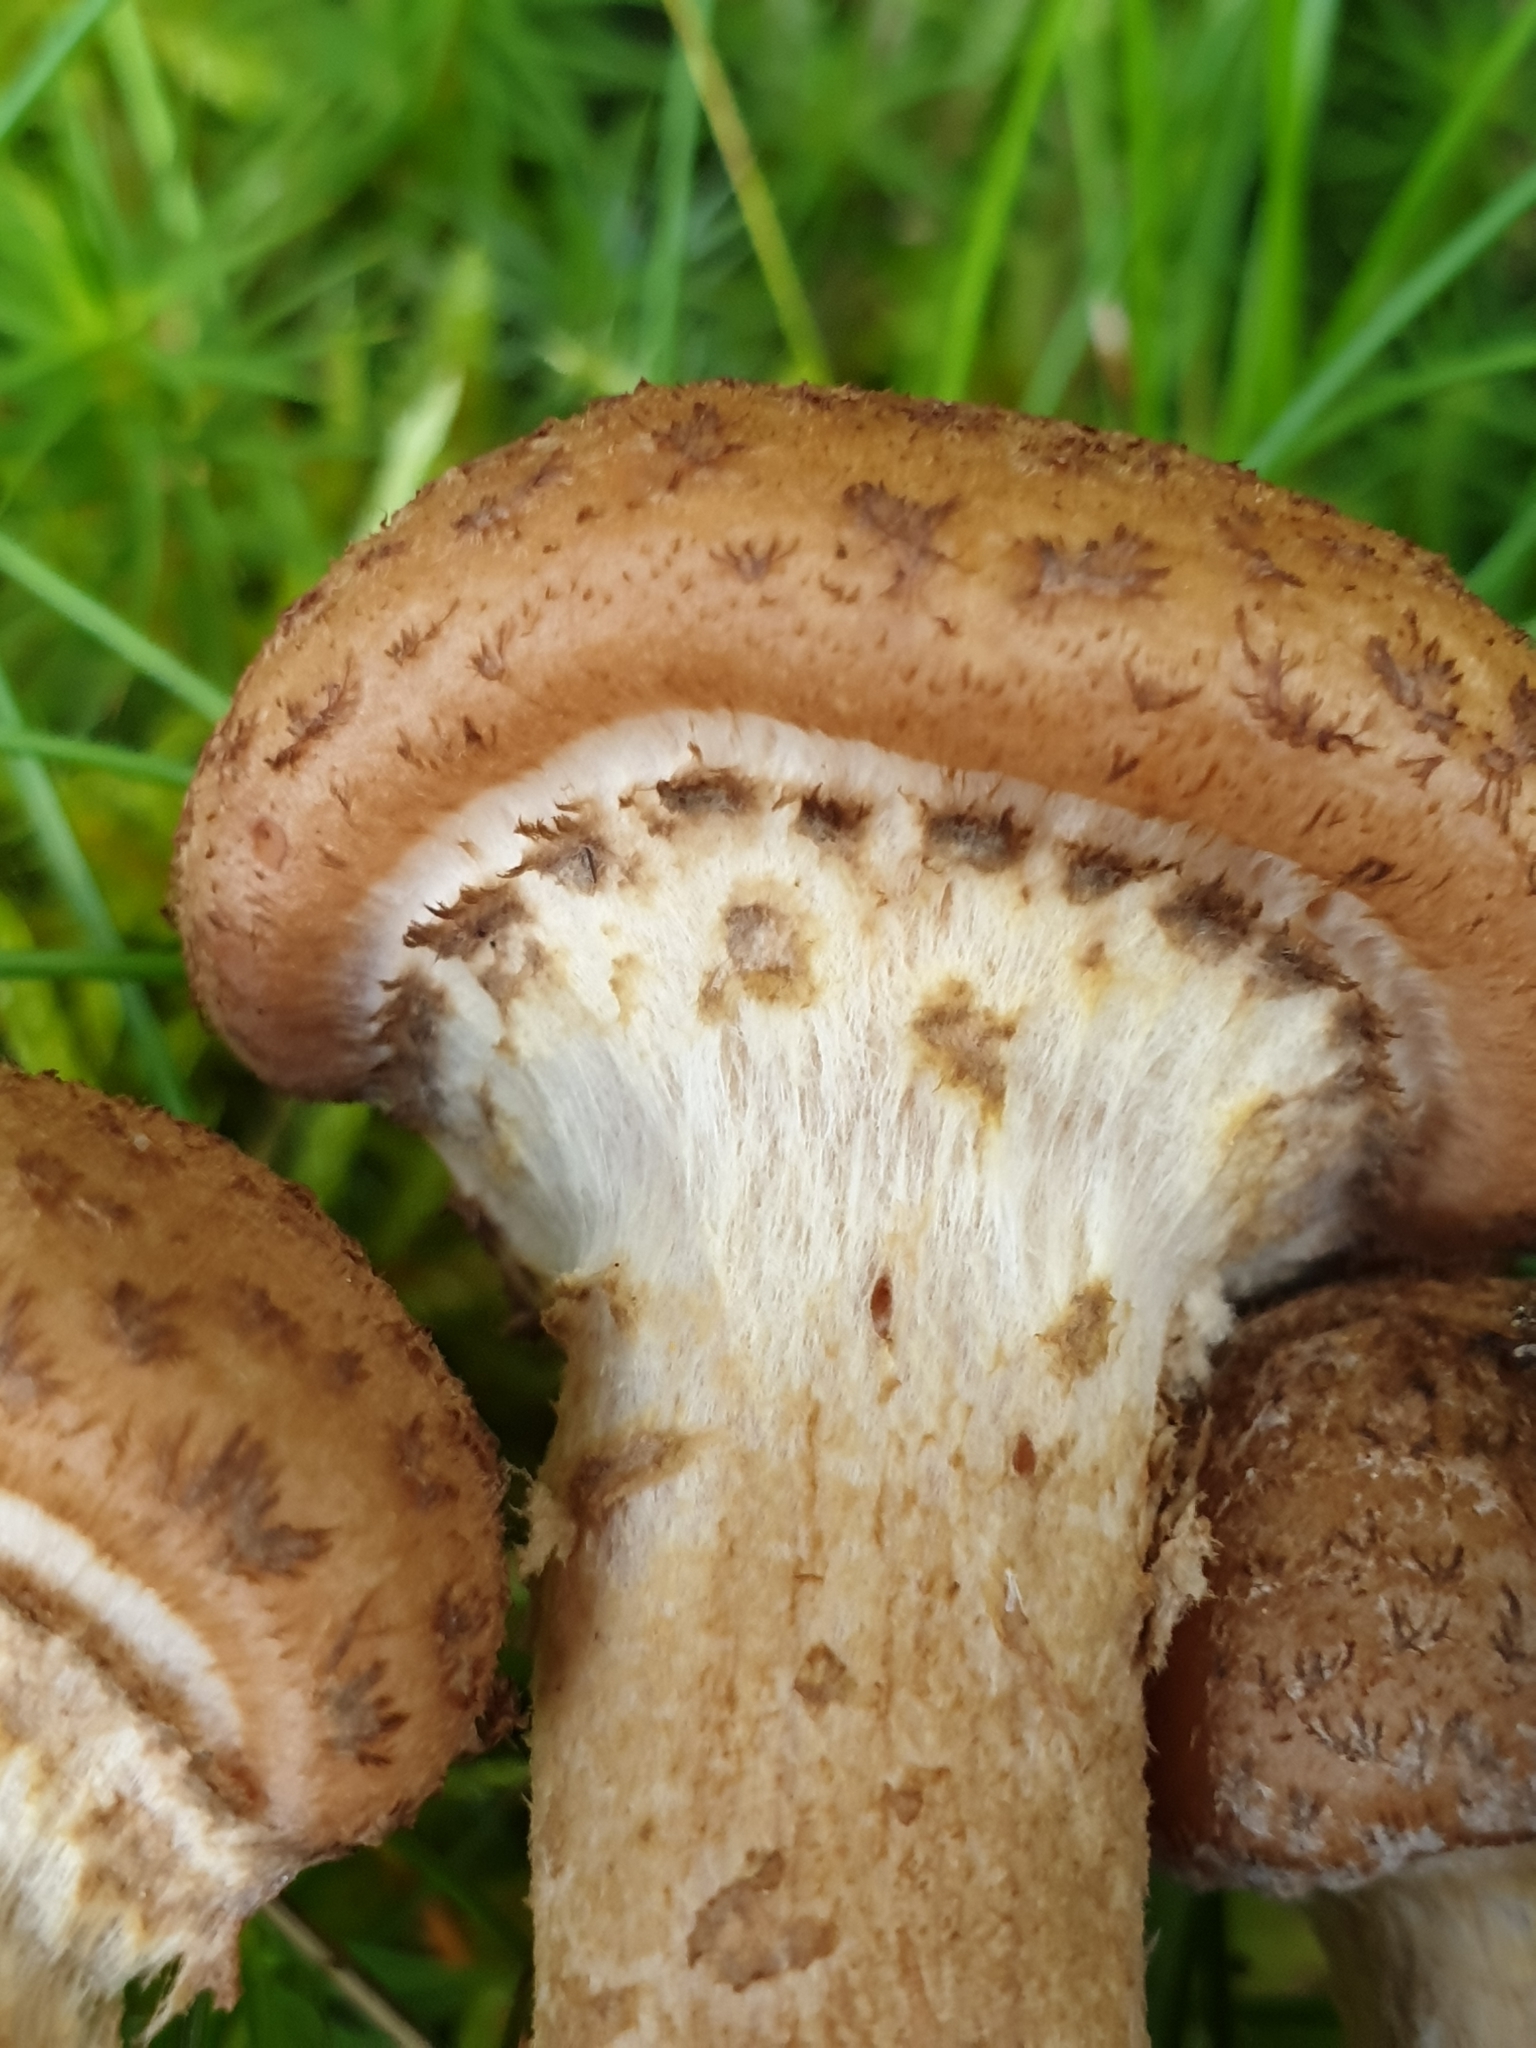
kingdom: Fungi
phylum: Basidiomycota
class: Agaricomycetes
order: Agaricales
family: Physalacriaceae
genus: Armillaria
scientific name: Armillaria mellea
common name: Honey fungus
